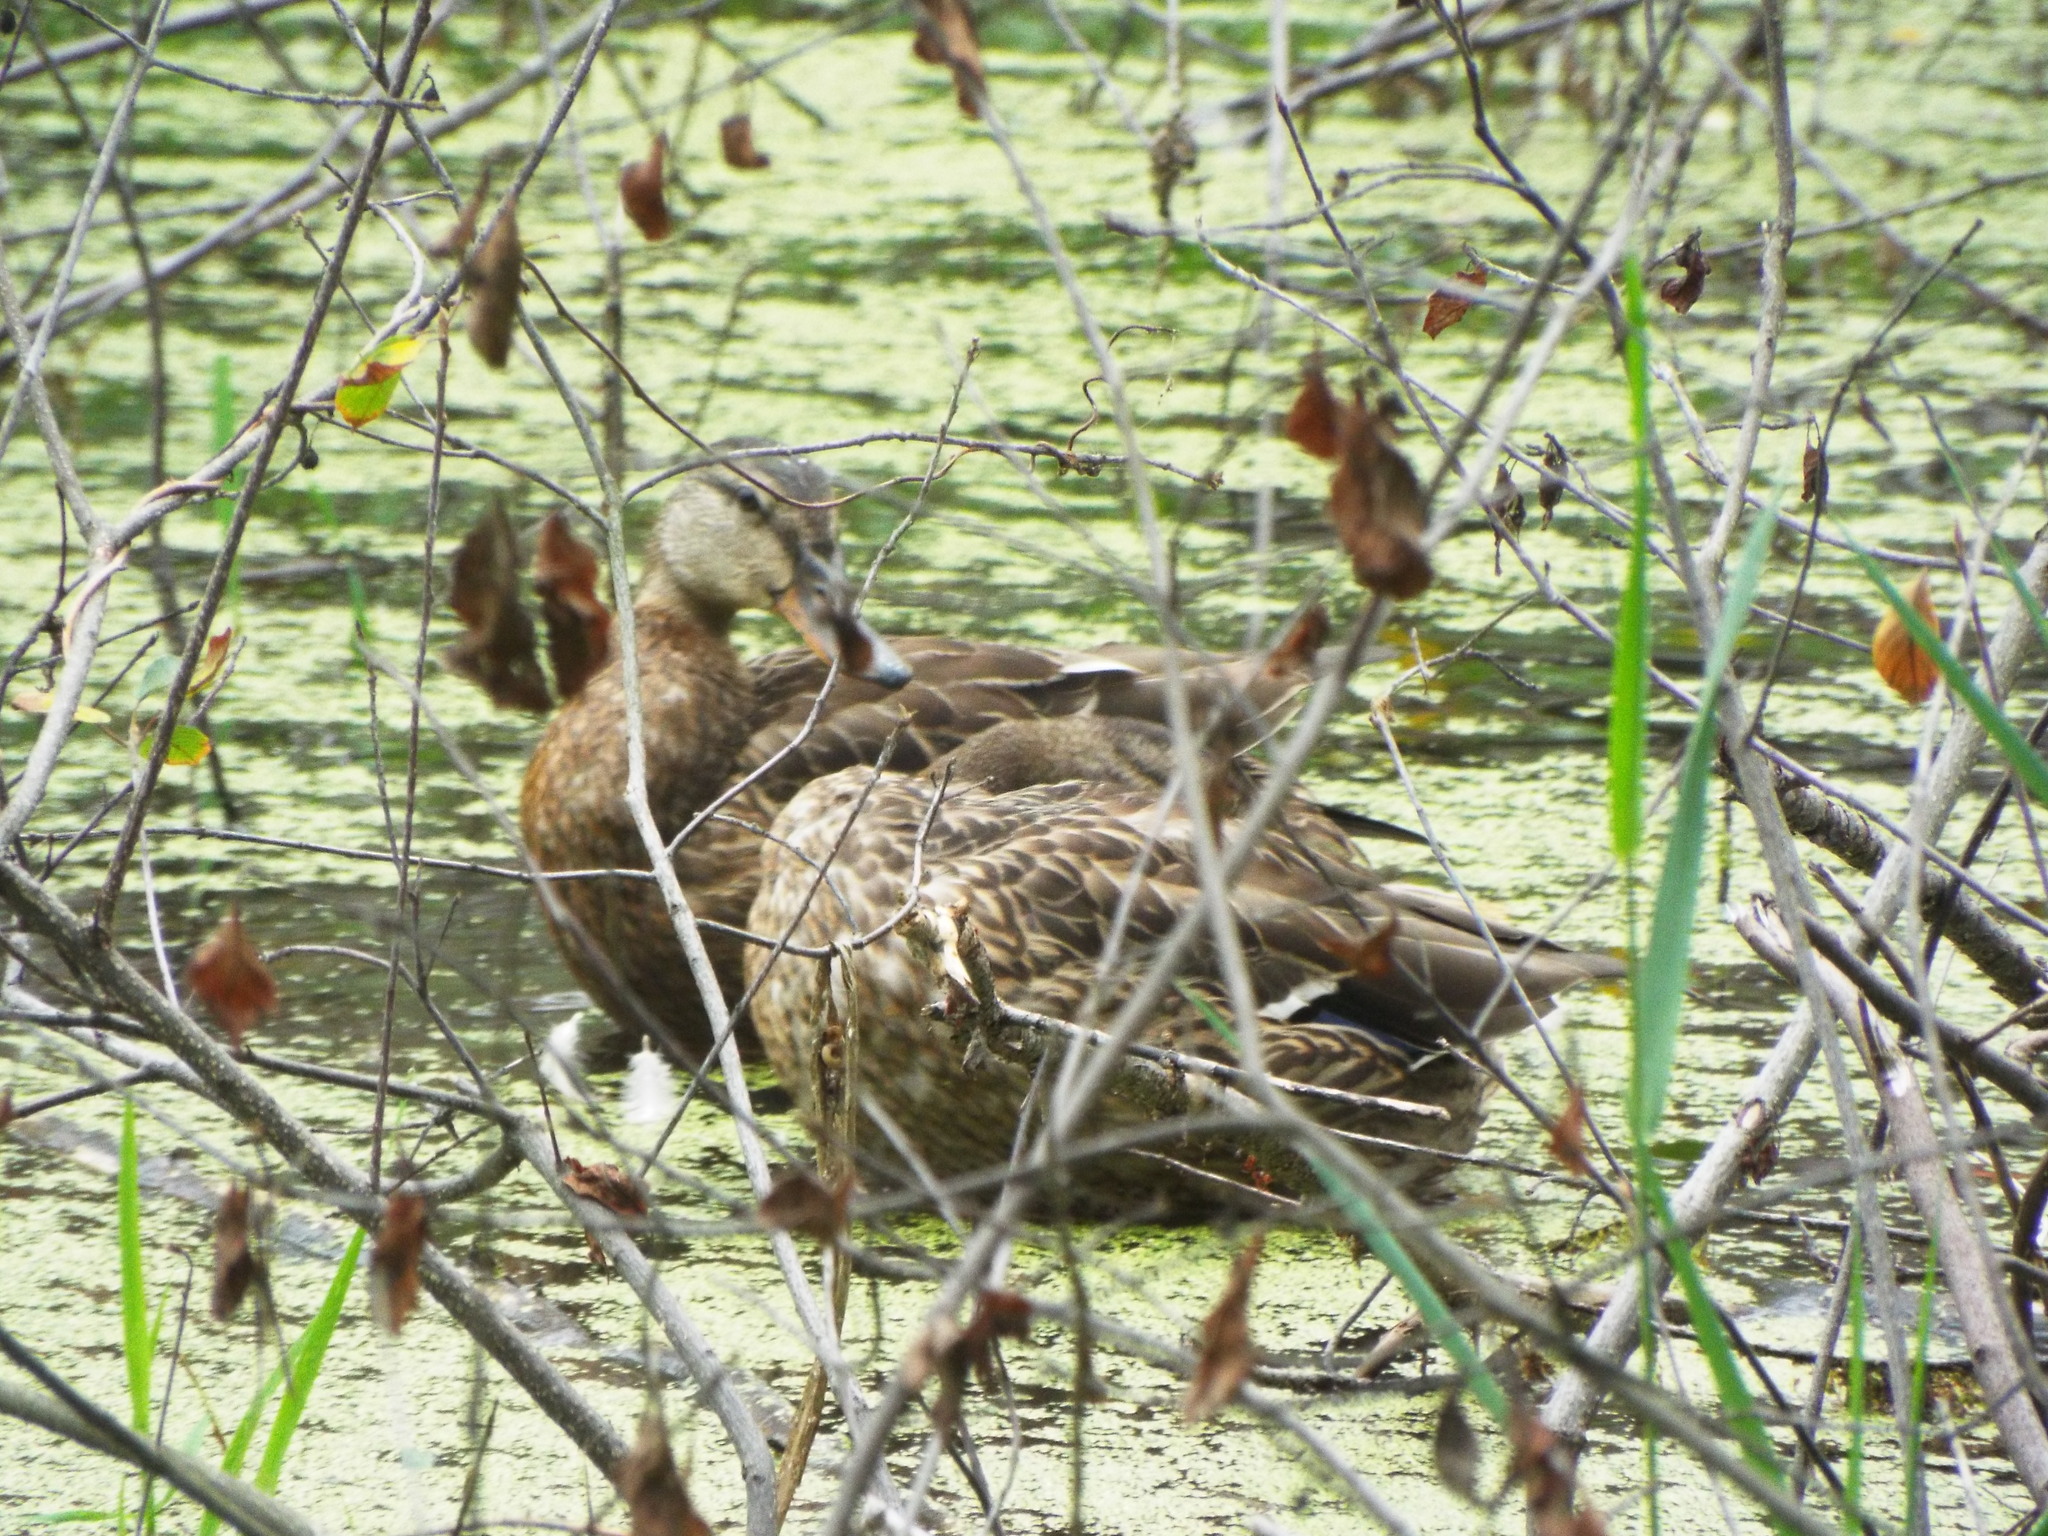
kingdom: Animalia
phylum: Chordata
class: Aves
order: Anseriformes
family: Anatidae
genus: Anas
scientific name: Anas platyrhynchos
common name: Mallard
